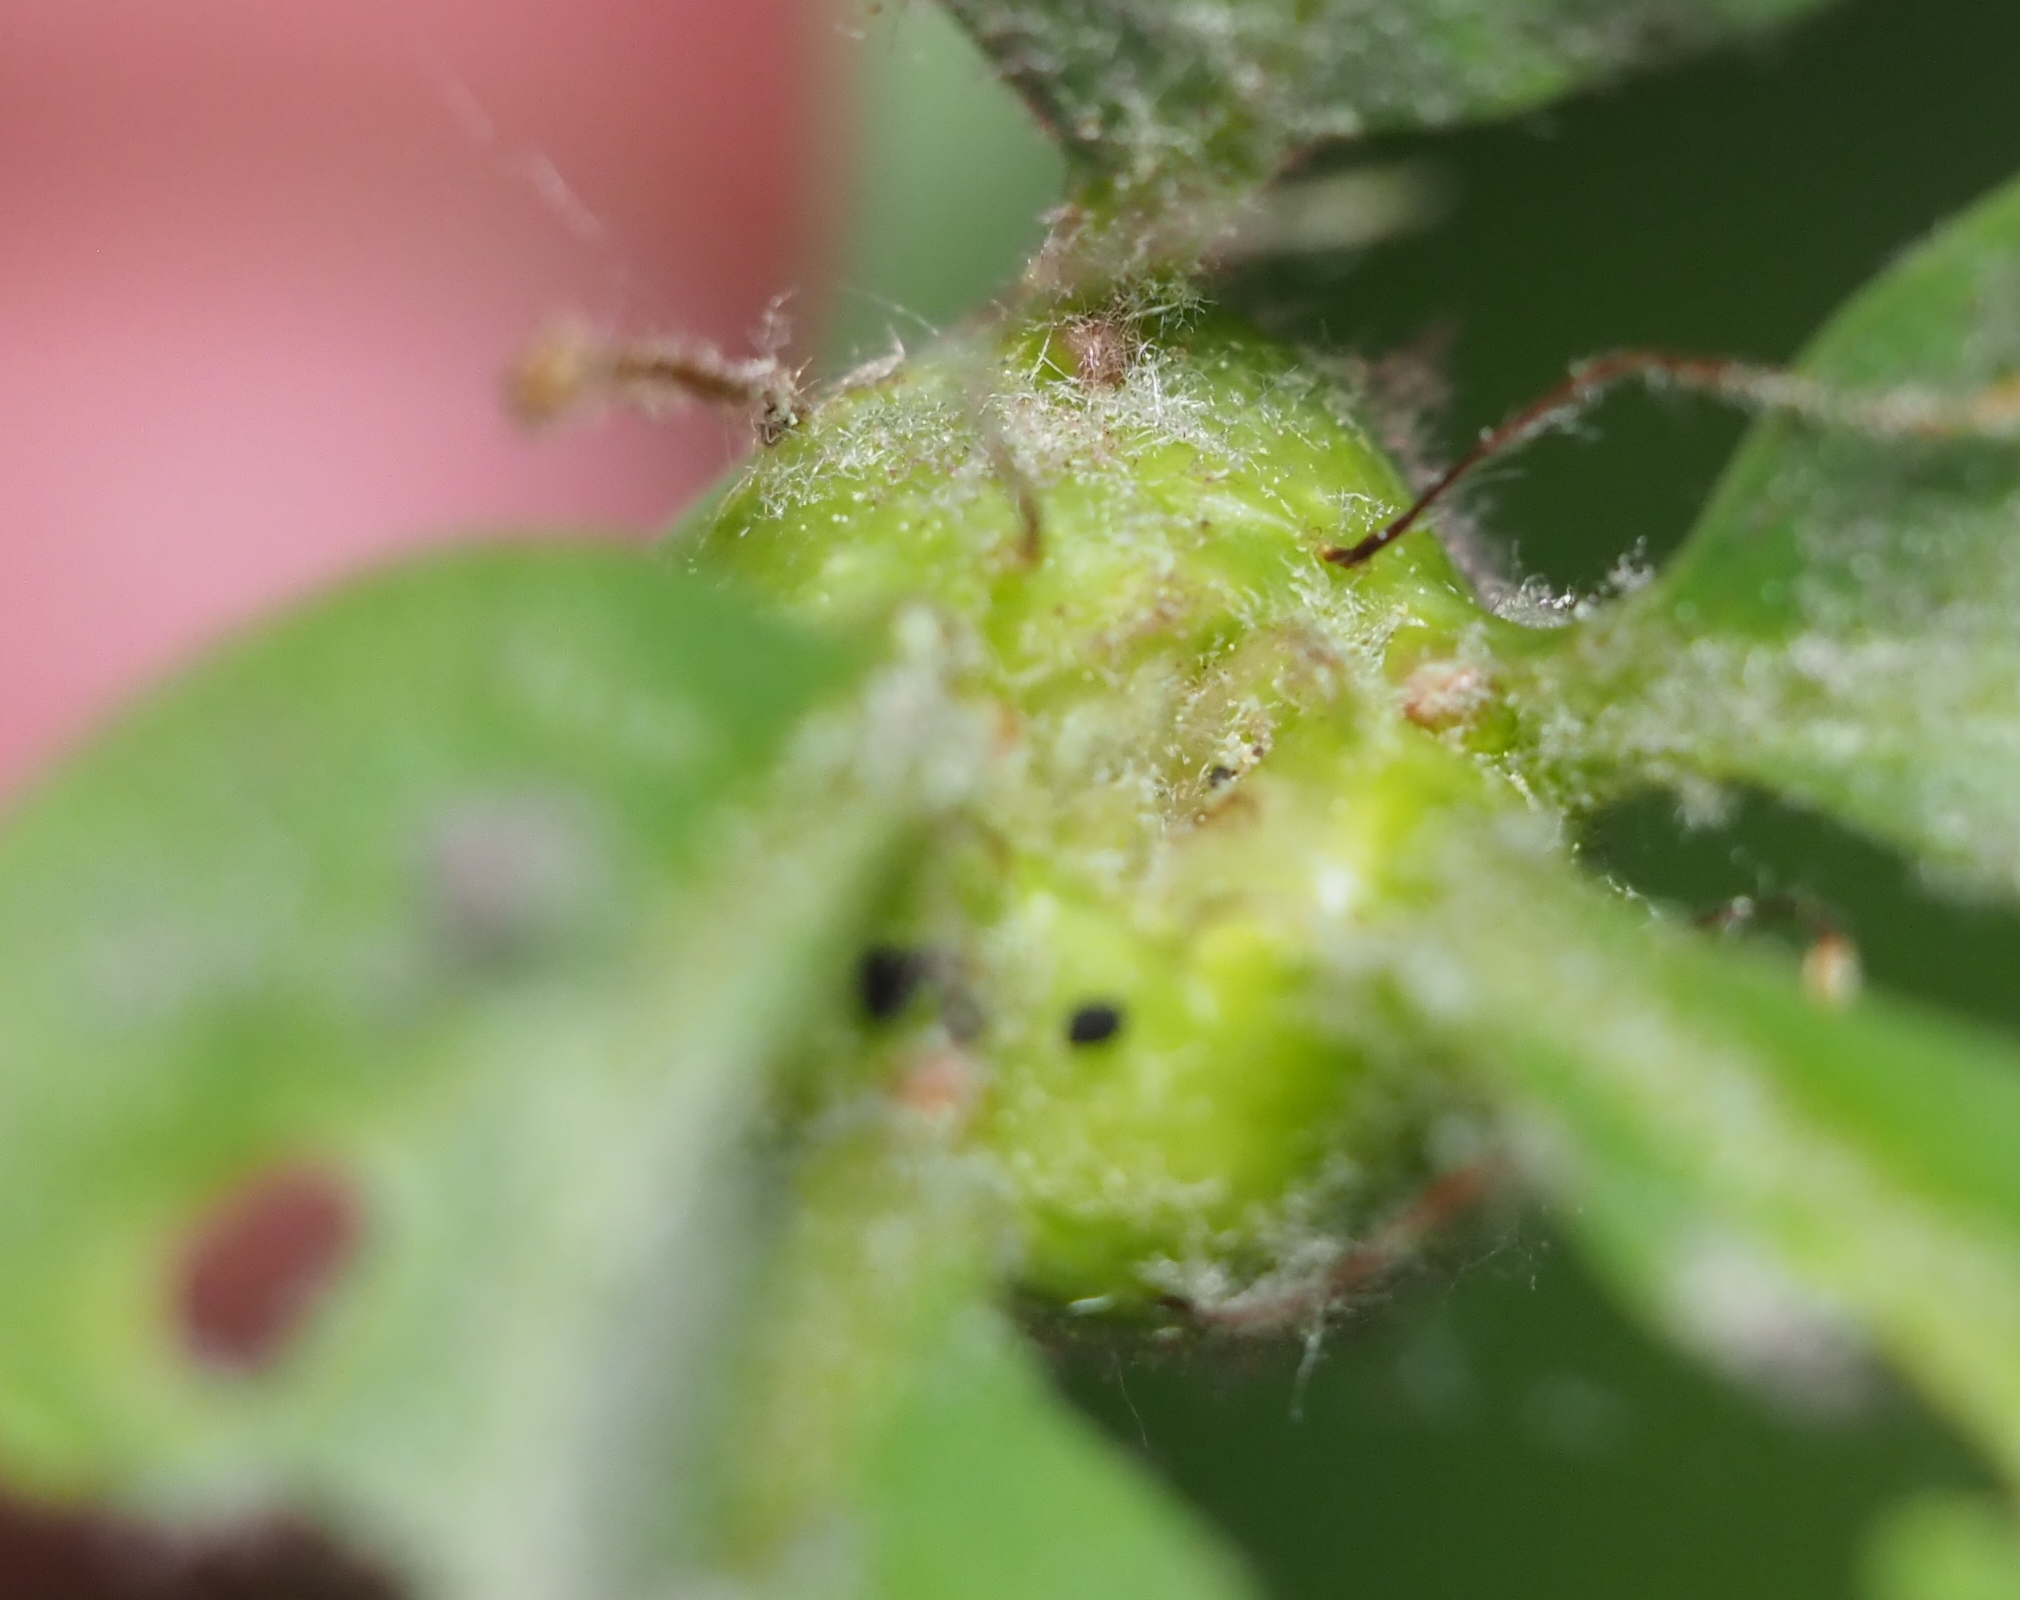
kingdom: Animalia
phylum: Arthropoda
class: Insecta
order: Hymenoptera
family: Cynipidae
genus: Callirhytis
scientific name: Callirhytis clavula
